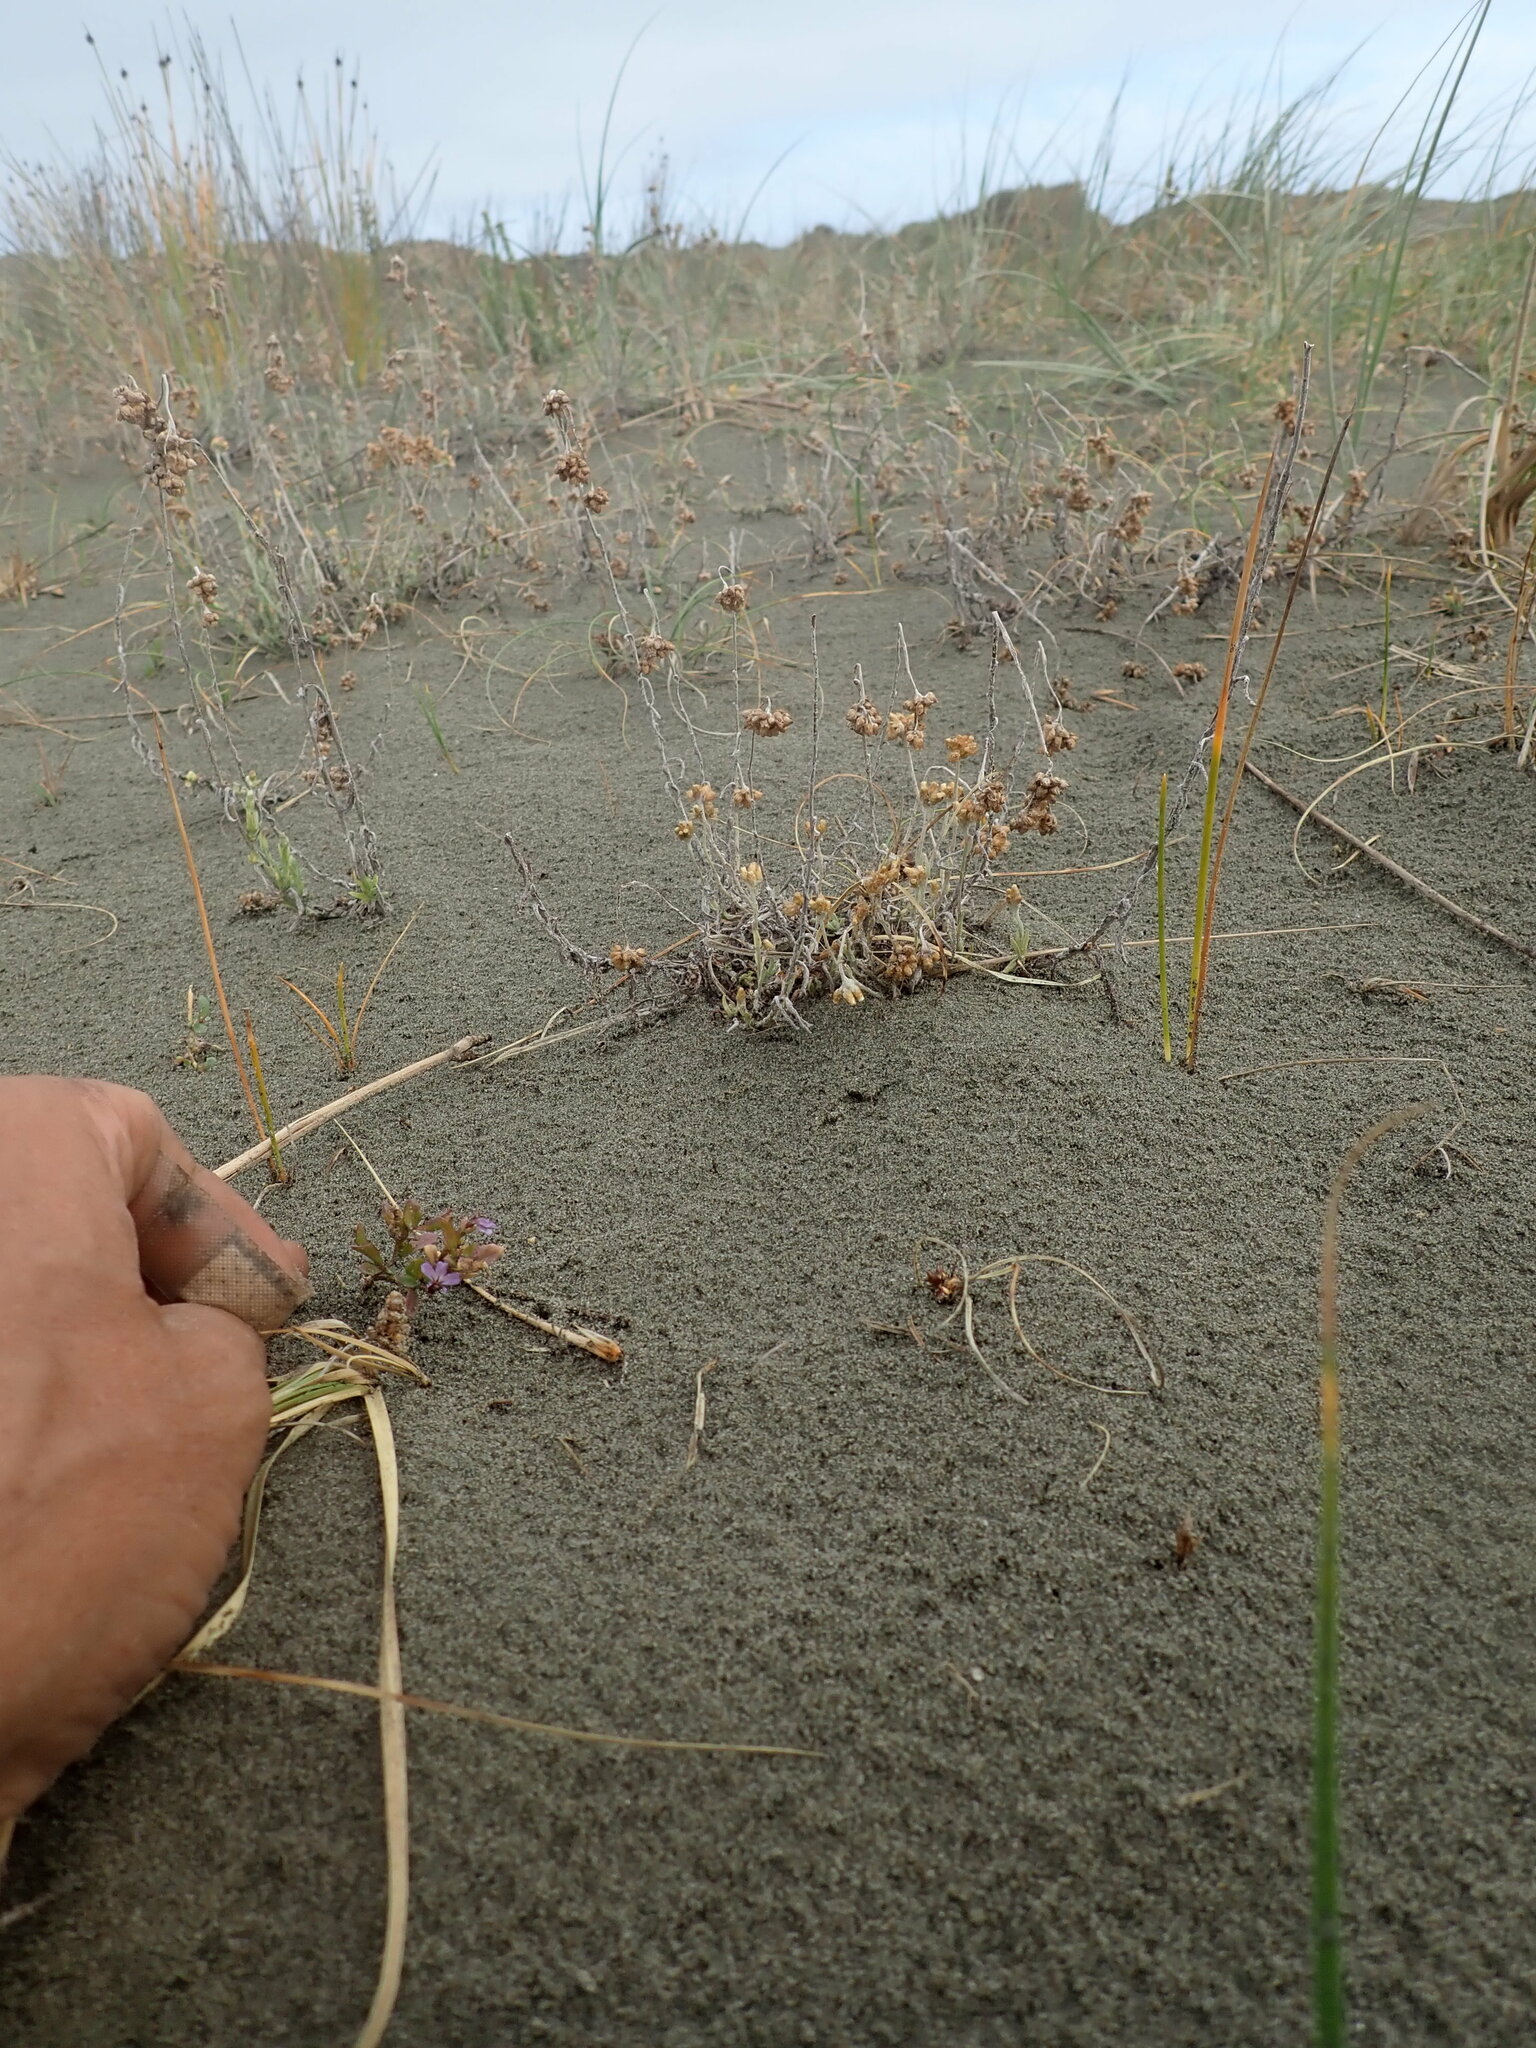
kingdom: Plantae
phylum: Tracheophyta
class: Magnoliopsida
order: Asterales
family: Campanulaceae
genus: Lobelia
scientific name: Lobelia anceps
